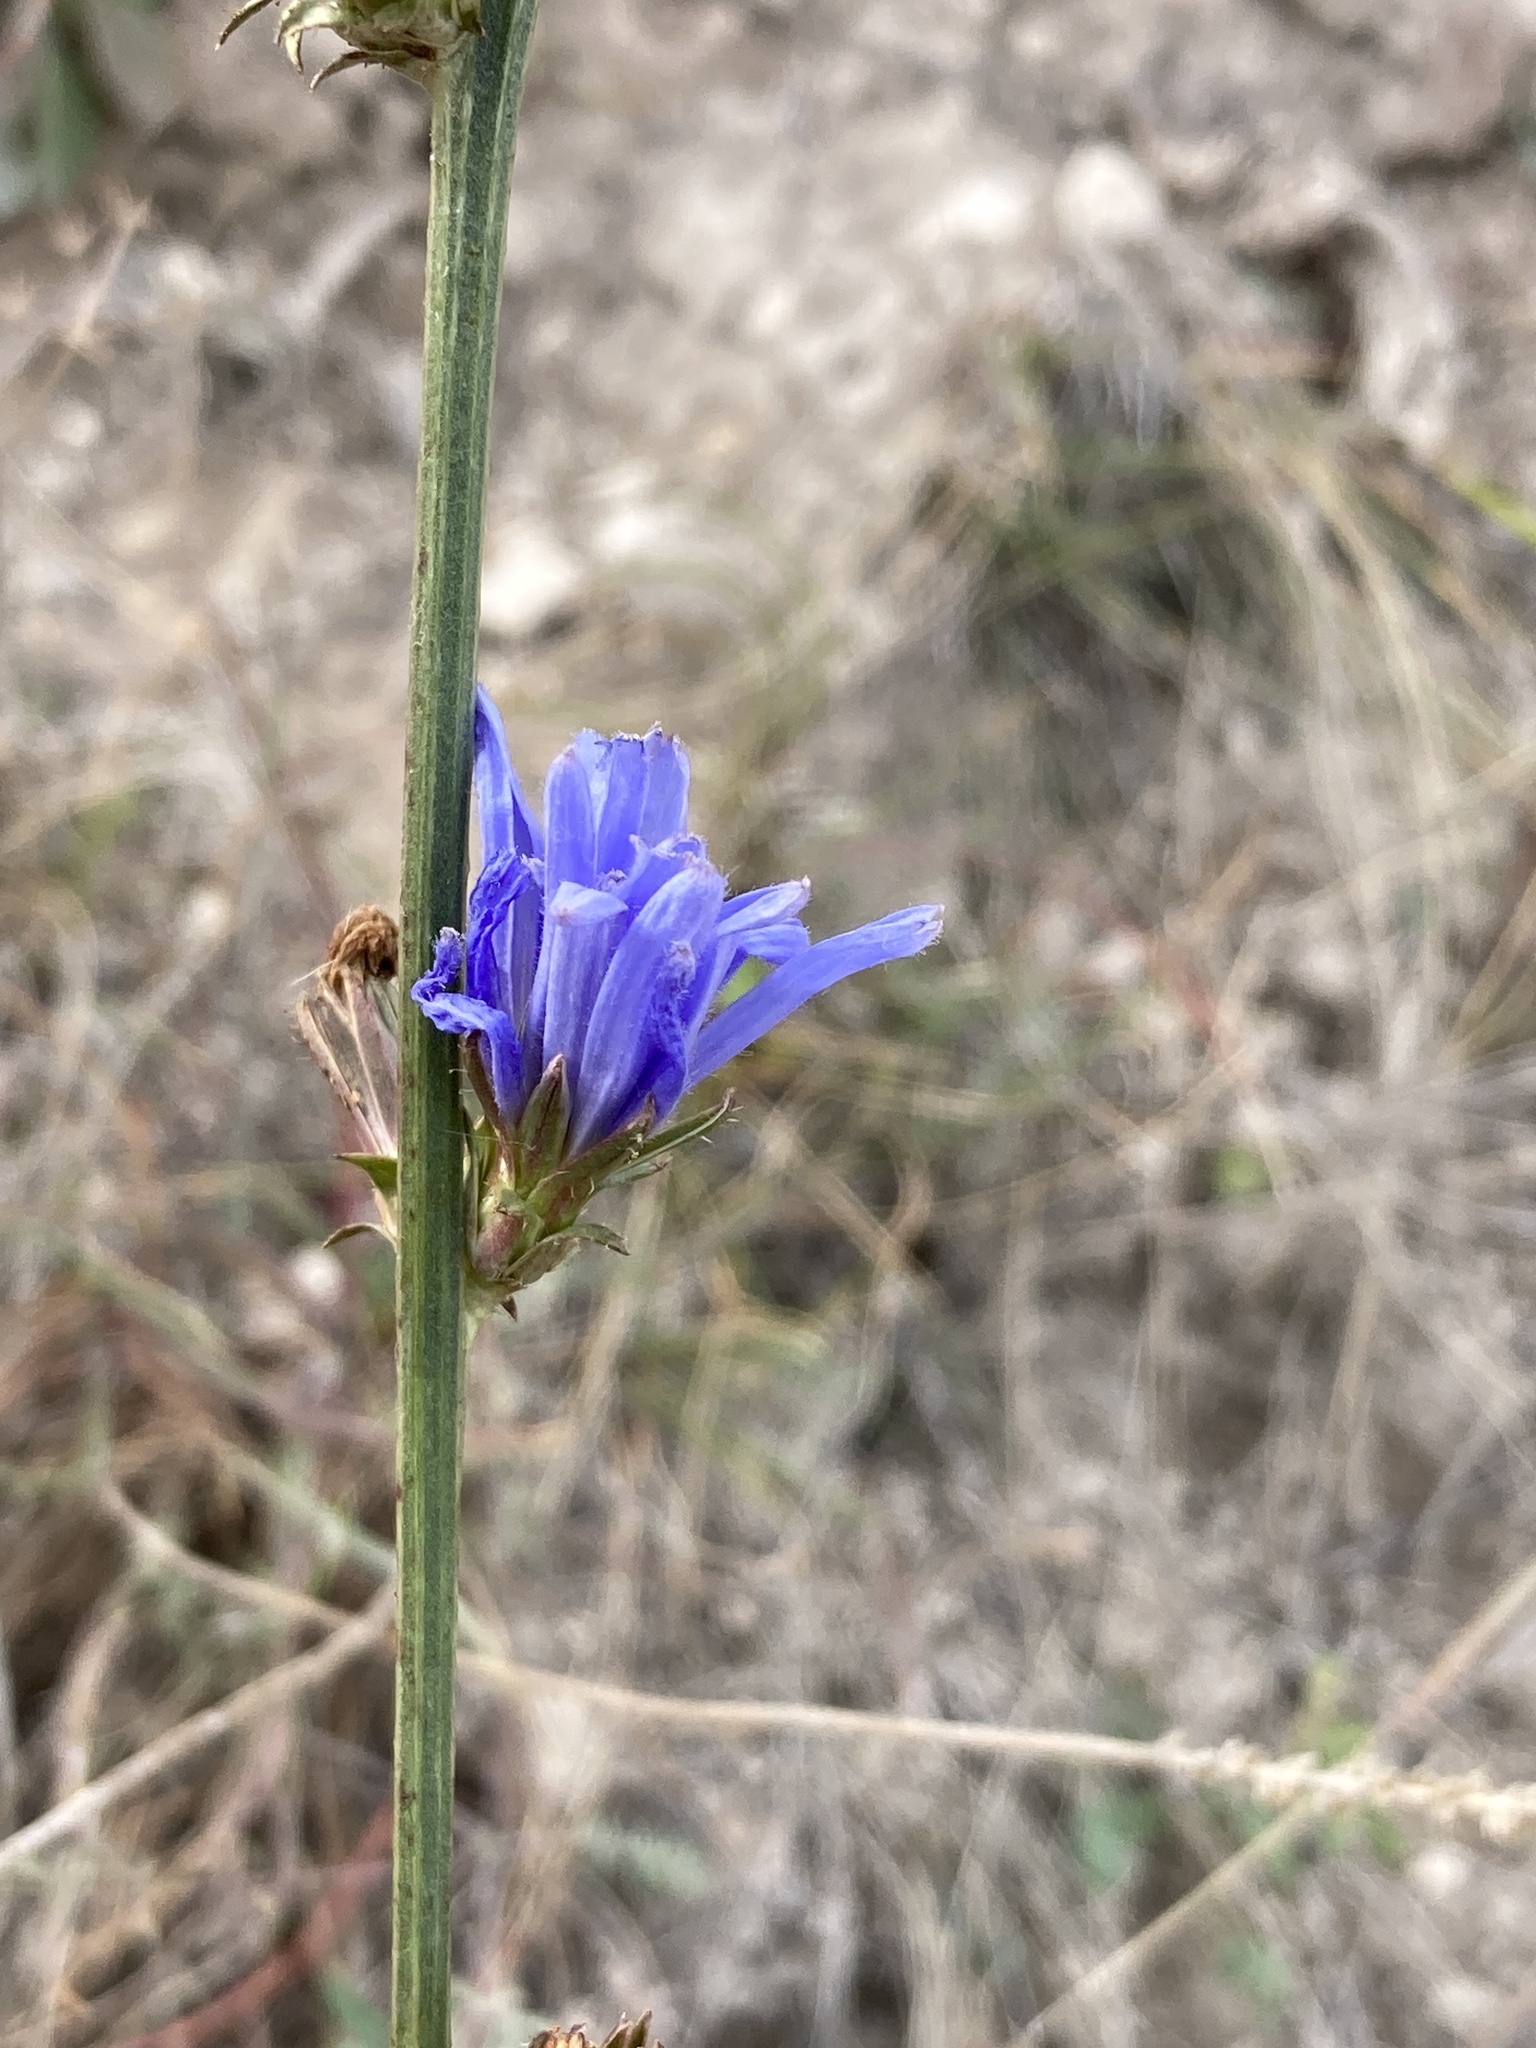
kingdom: Plantae
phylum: Tracheophyta
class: Magnoliopsida
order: Asterales
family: Asteraceae
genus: Cichorium
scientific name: Cichorium intybus
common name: Chicory
